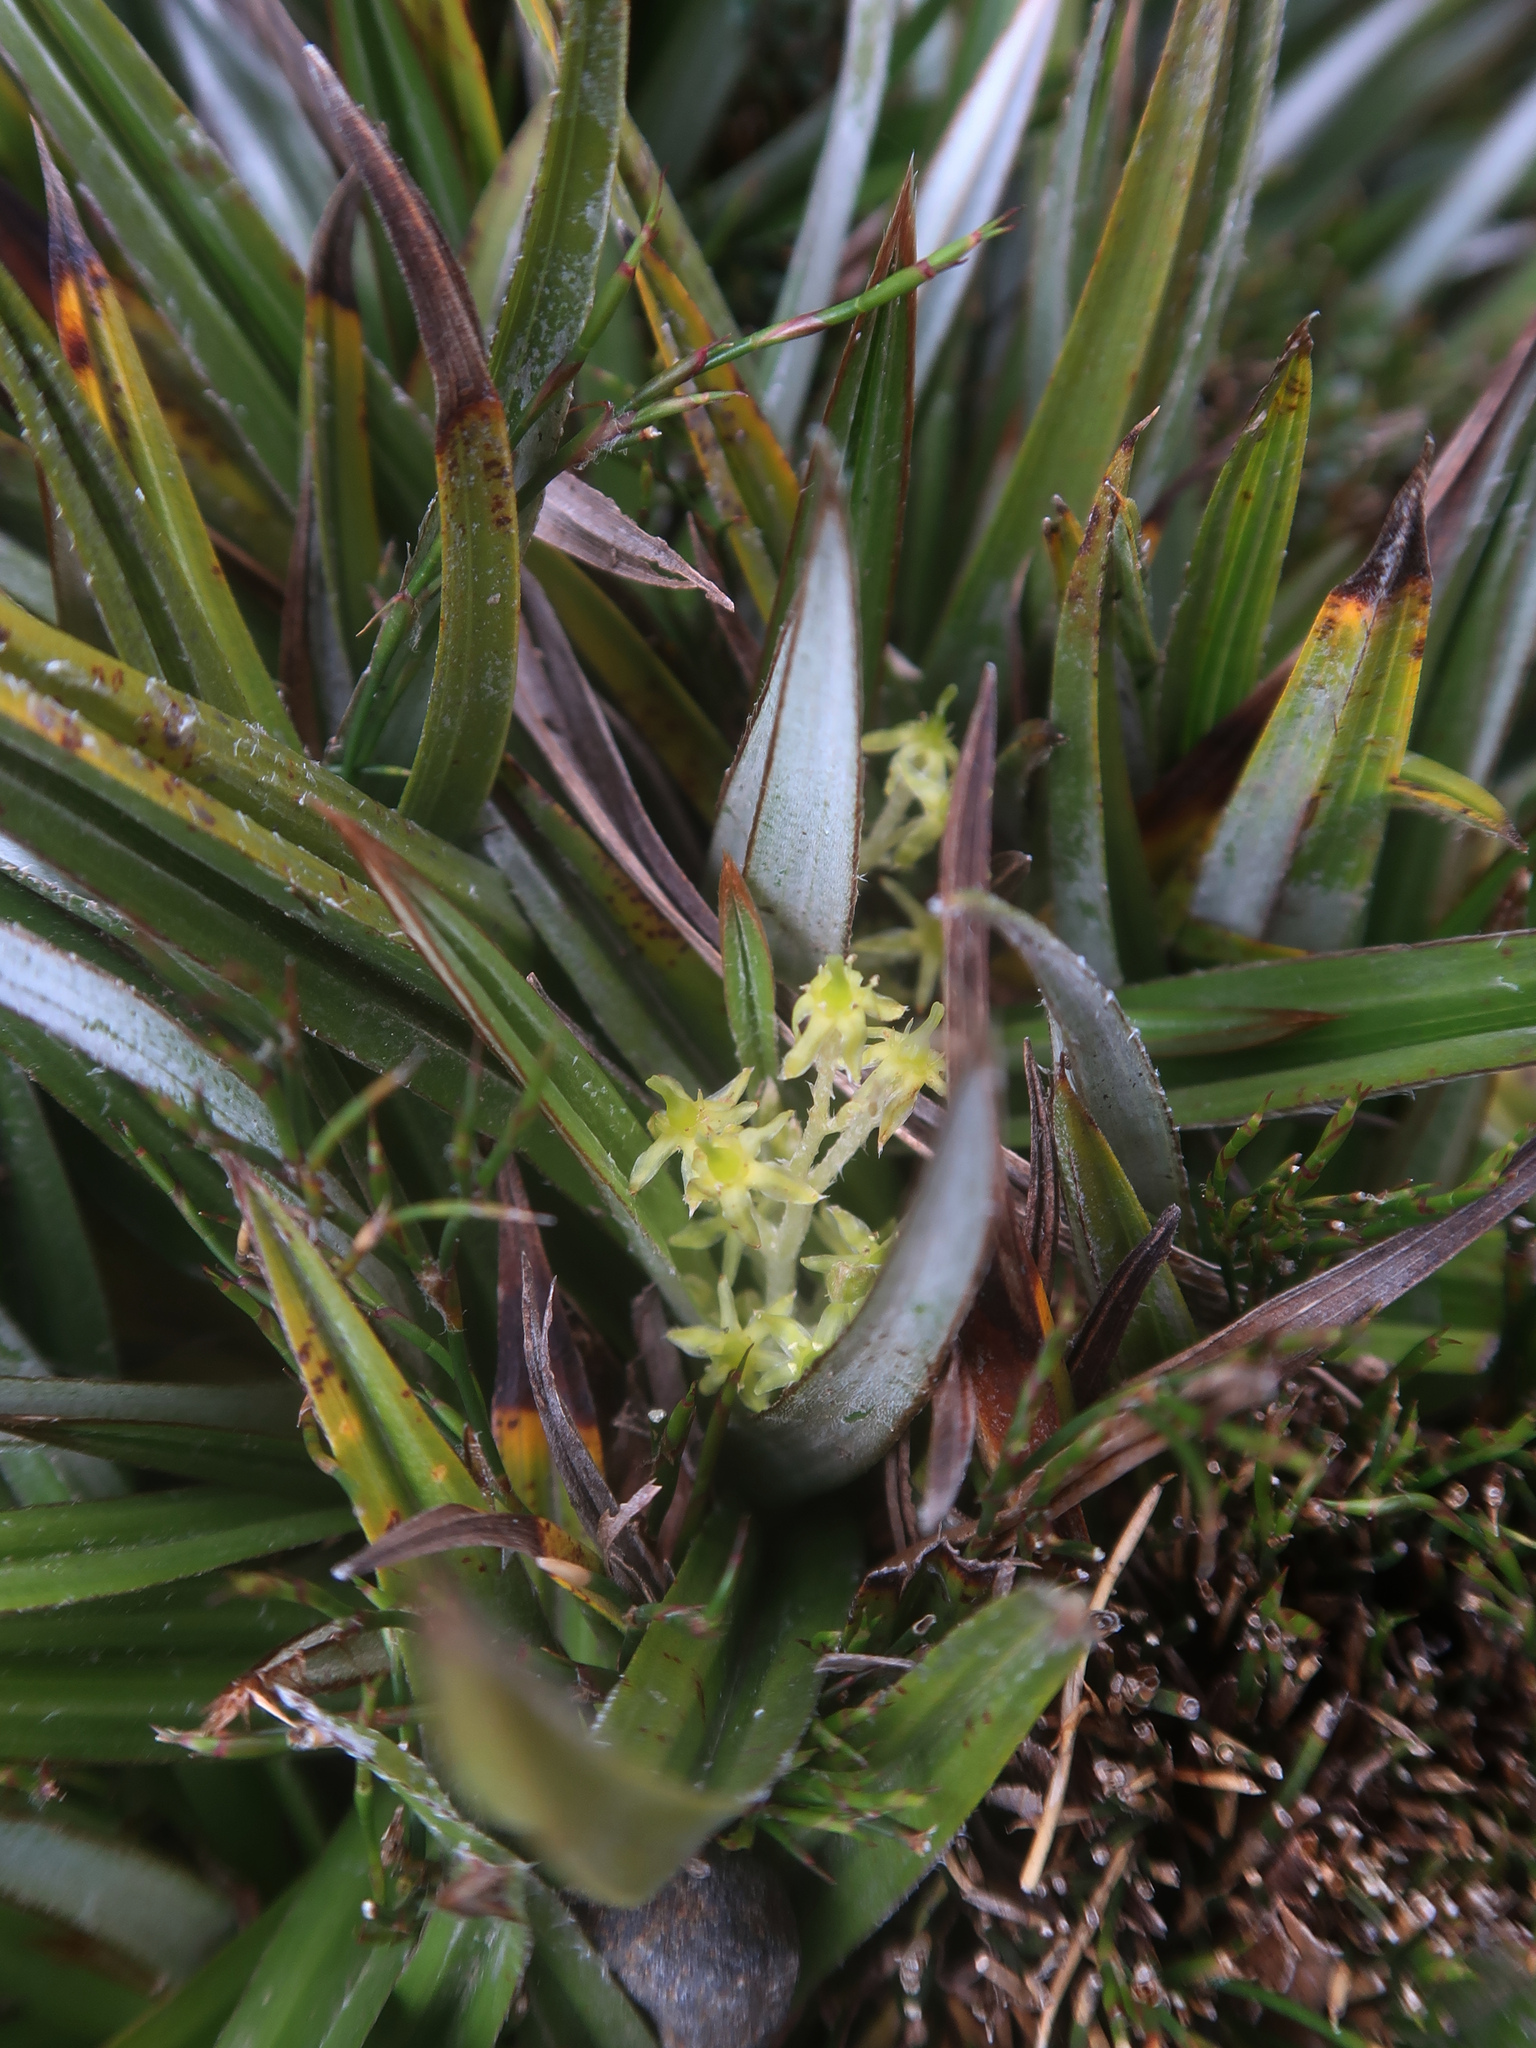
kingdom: Plantae
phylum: Tracheophyta
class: Liliopsida
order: Asparagales
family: Asteliaceae
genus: Astelia
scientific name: Astelia alpina
